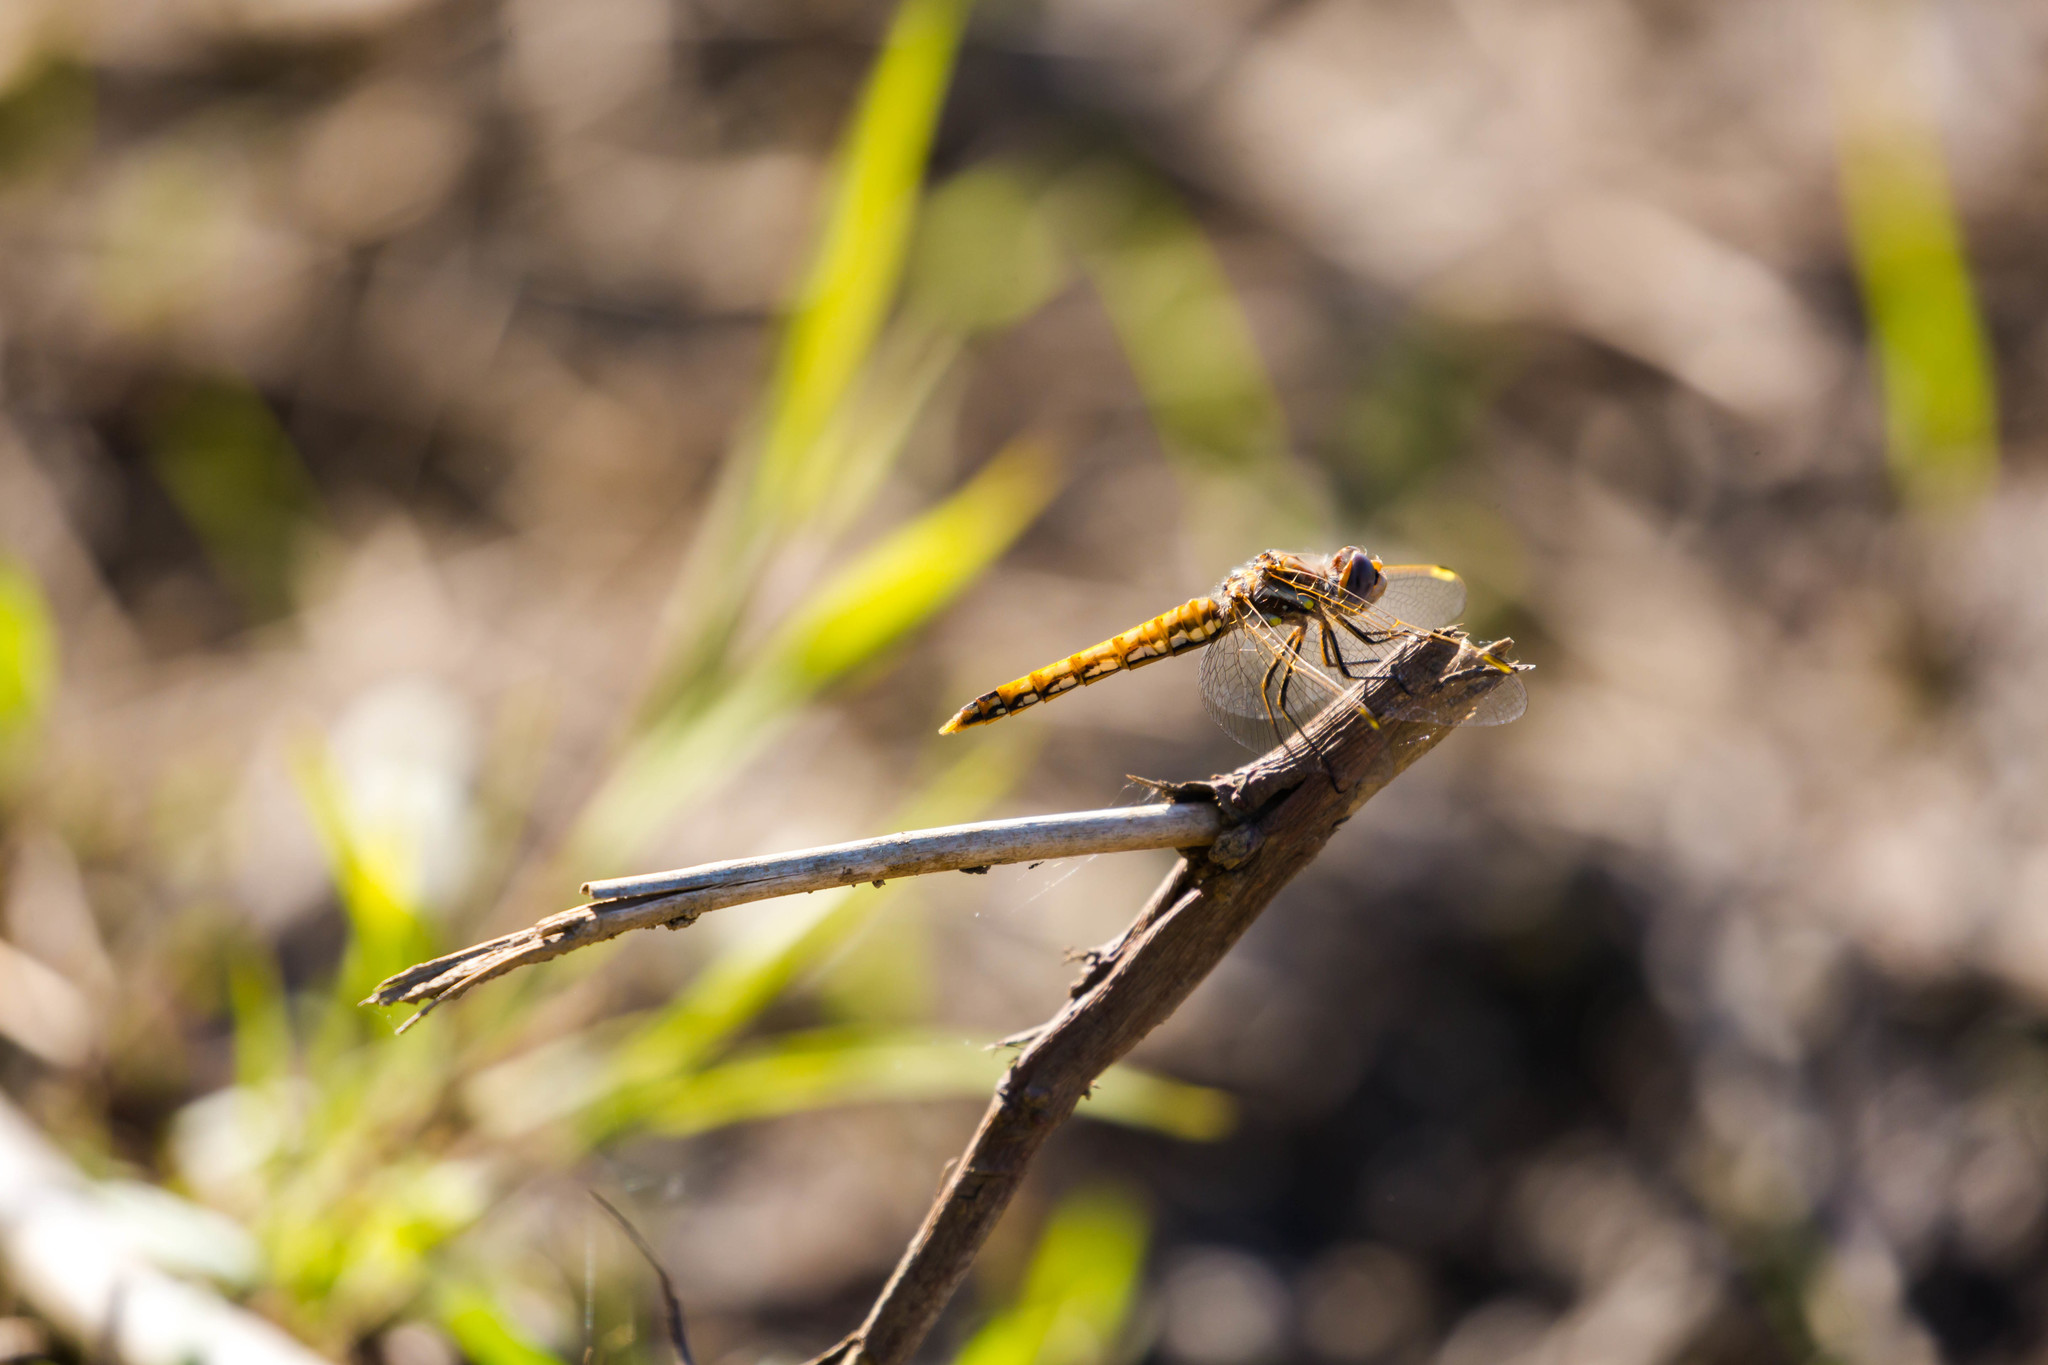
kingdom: Animalia
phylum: Arthropoda
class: Insecta
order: Odonata
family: Libellulidae
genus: Sympetrum
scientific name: Sympetrum corruptum
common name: Variegated meadowhawk
